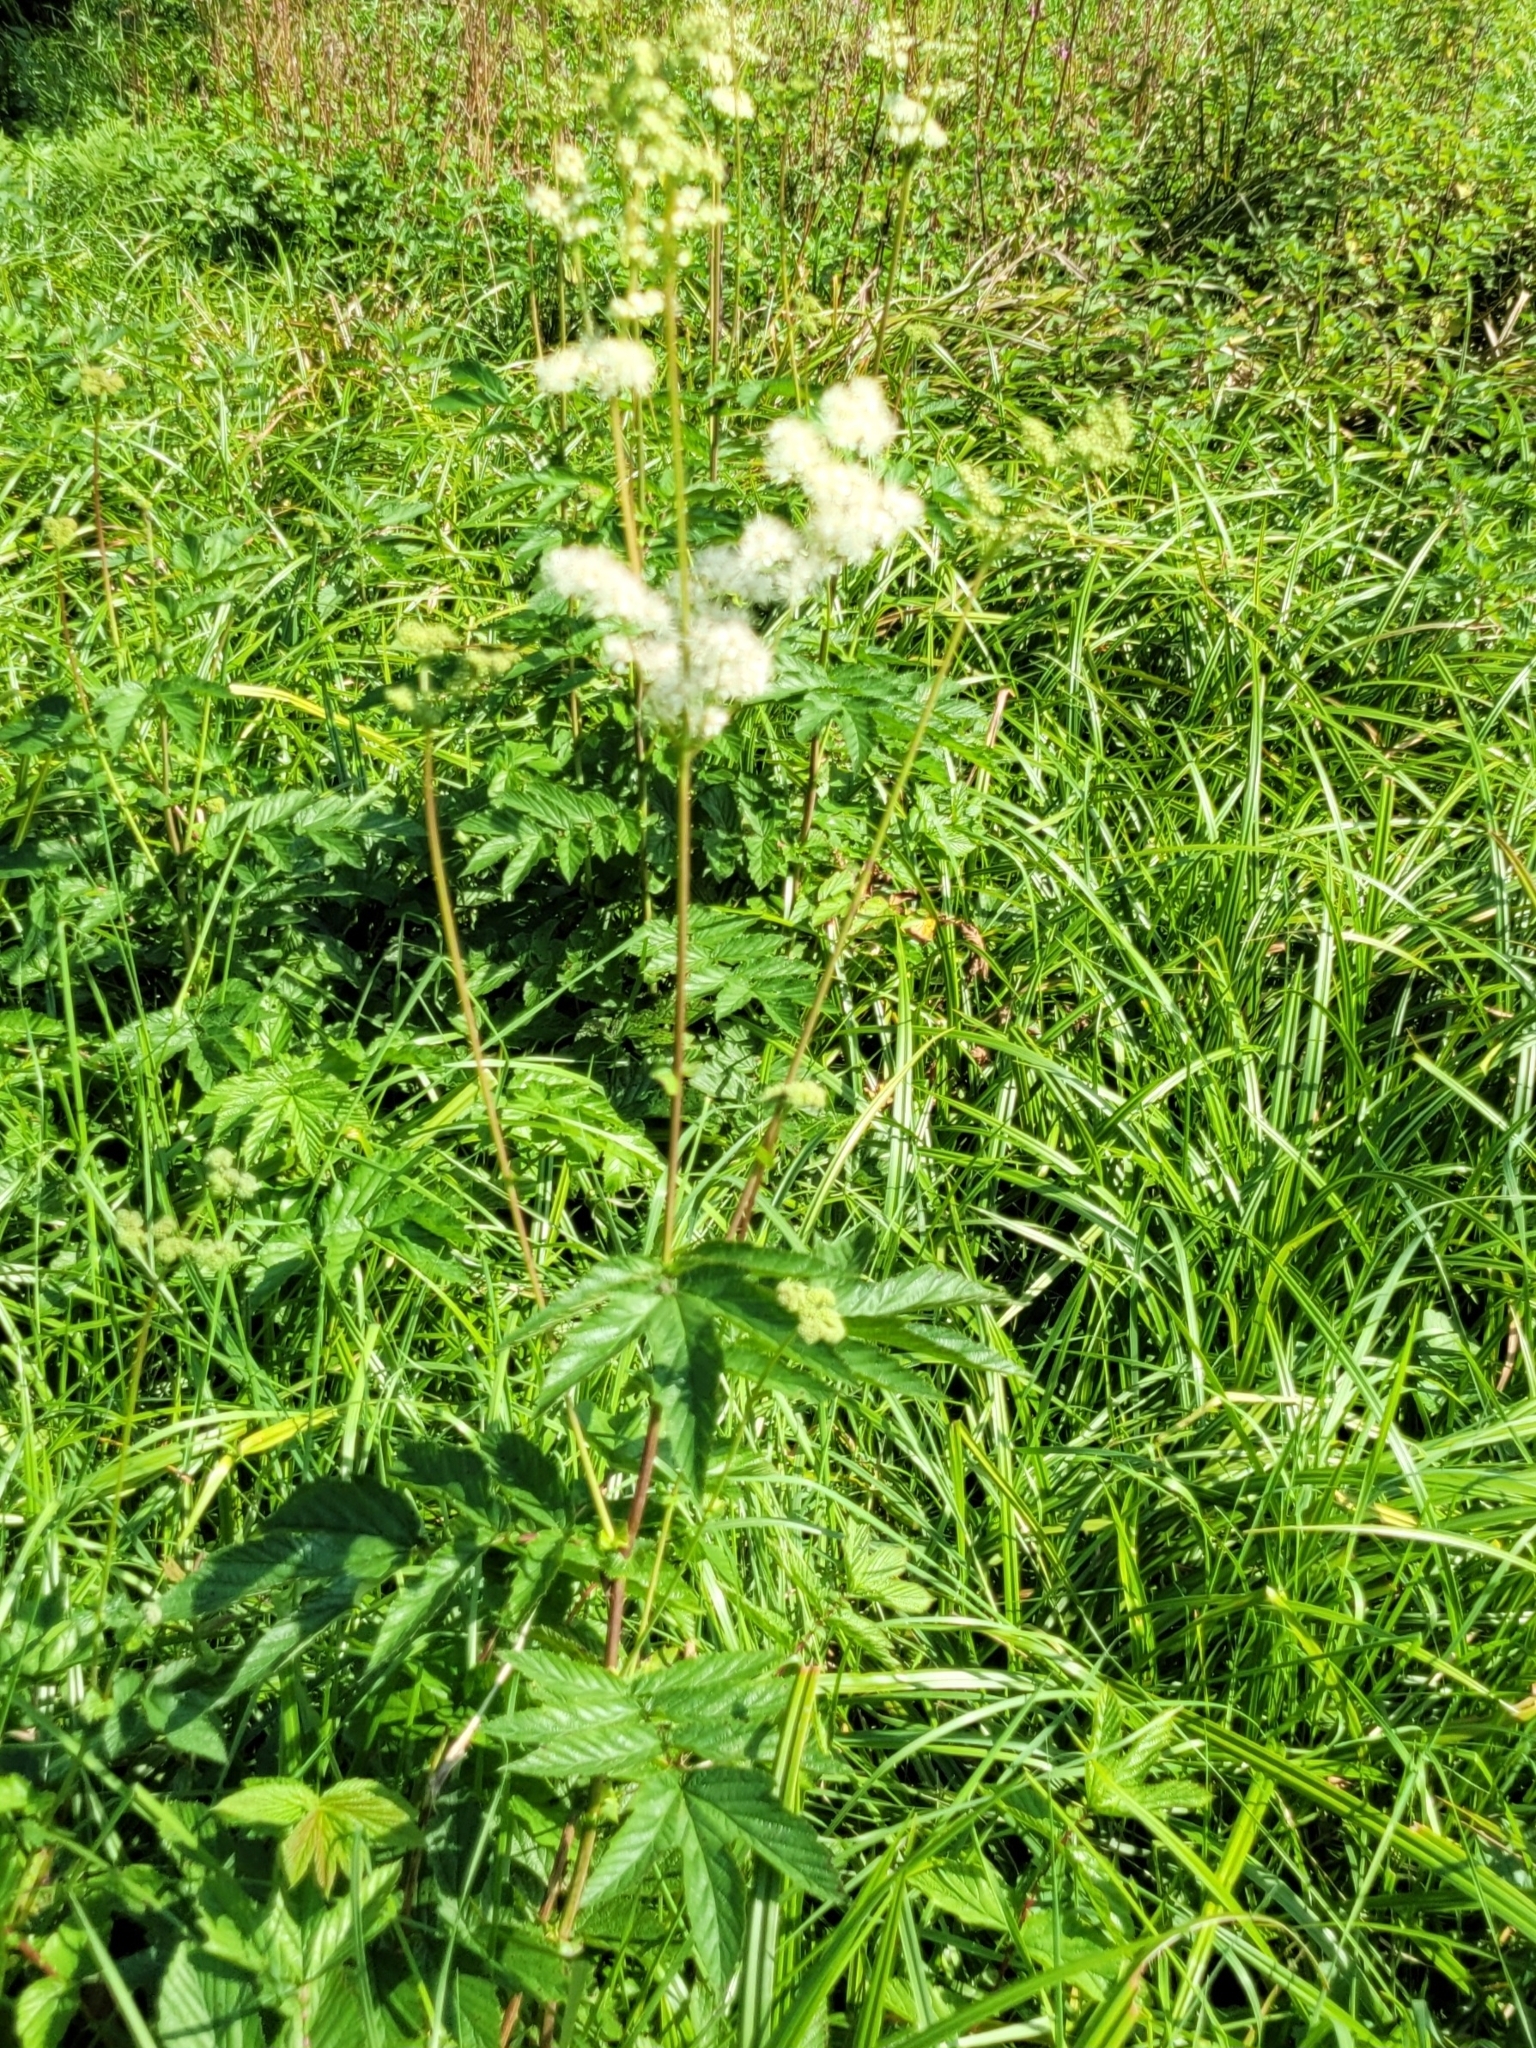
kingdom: Plantae
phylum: Tracheophyta
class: Magnoliopsida
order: Rosales
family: Rosaceae
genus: Filipendula
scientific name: Filipendula ulmaria
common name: Meadowsweet
